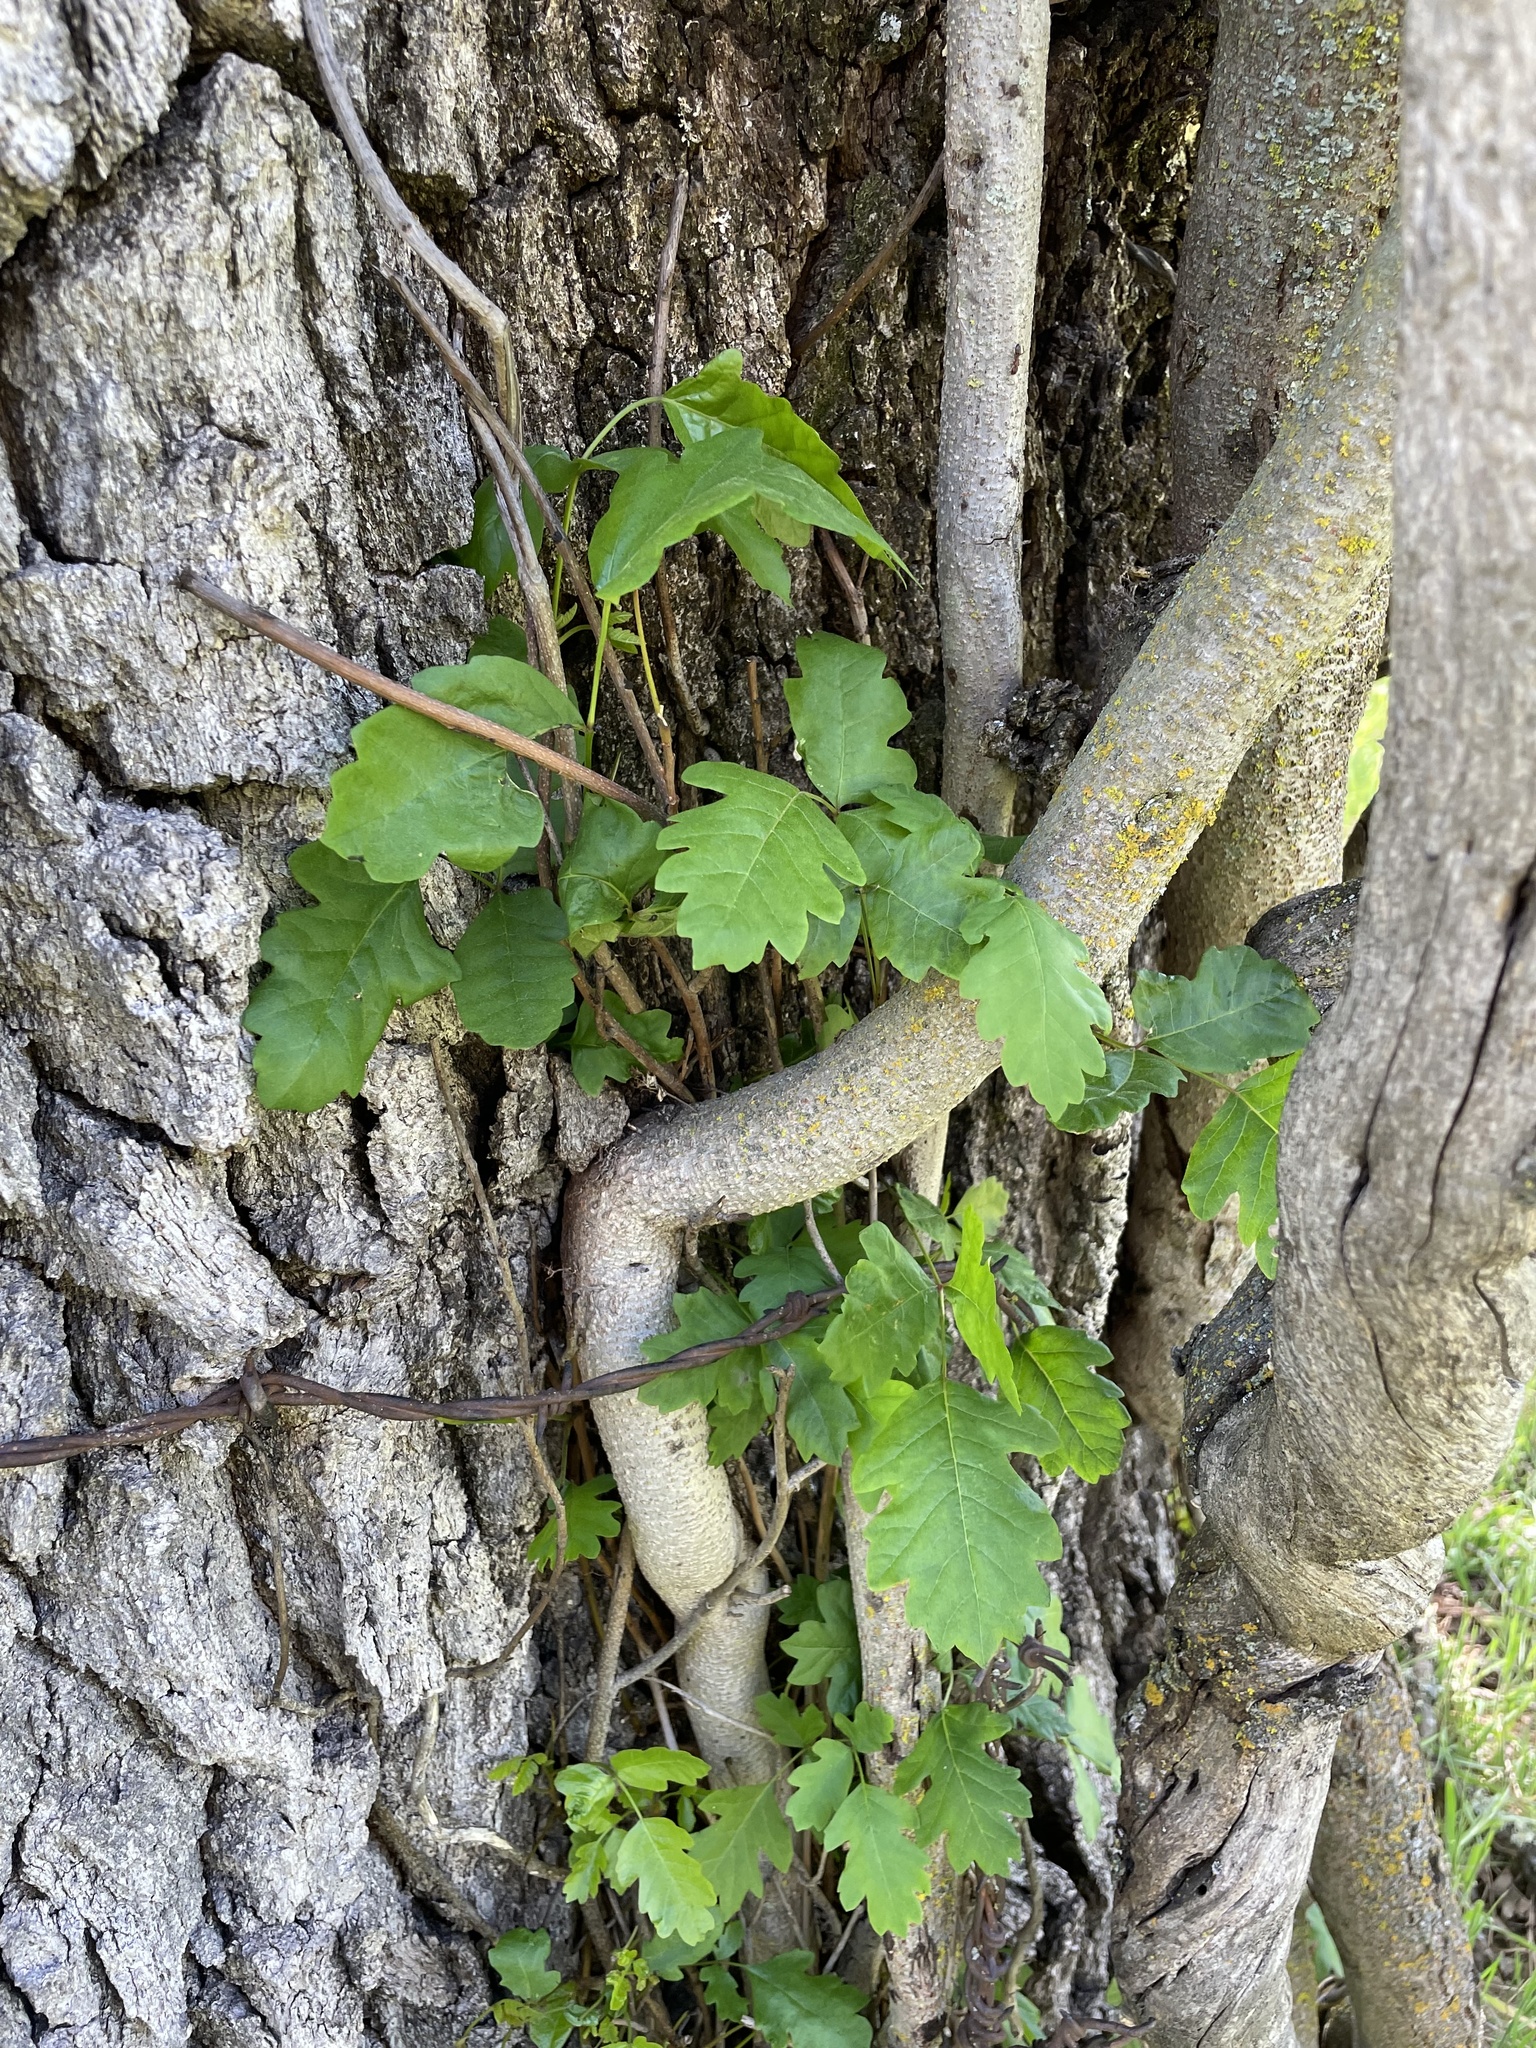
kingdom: Plantae
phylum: Tracheophyta
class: Magnoliopsida
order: Sapindales
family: Anacardiaceae
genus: Toxicodendron
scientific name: Toxicodendron diversilobum
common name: Pacific poison-oak
